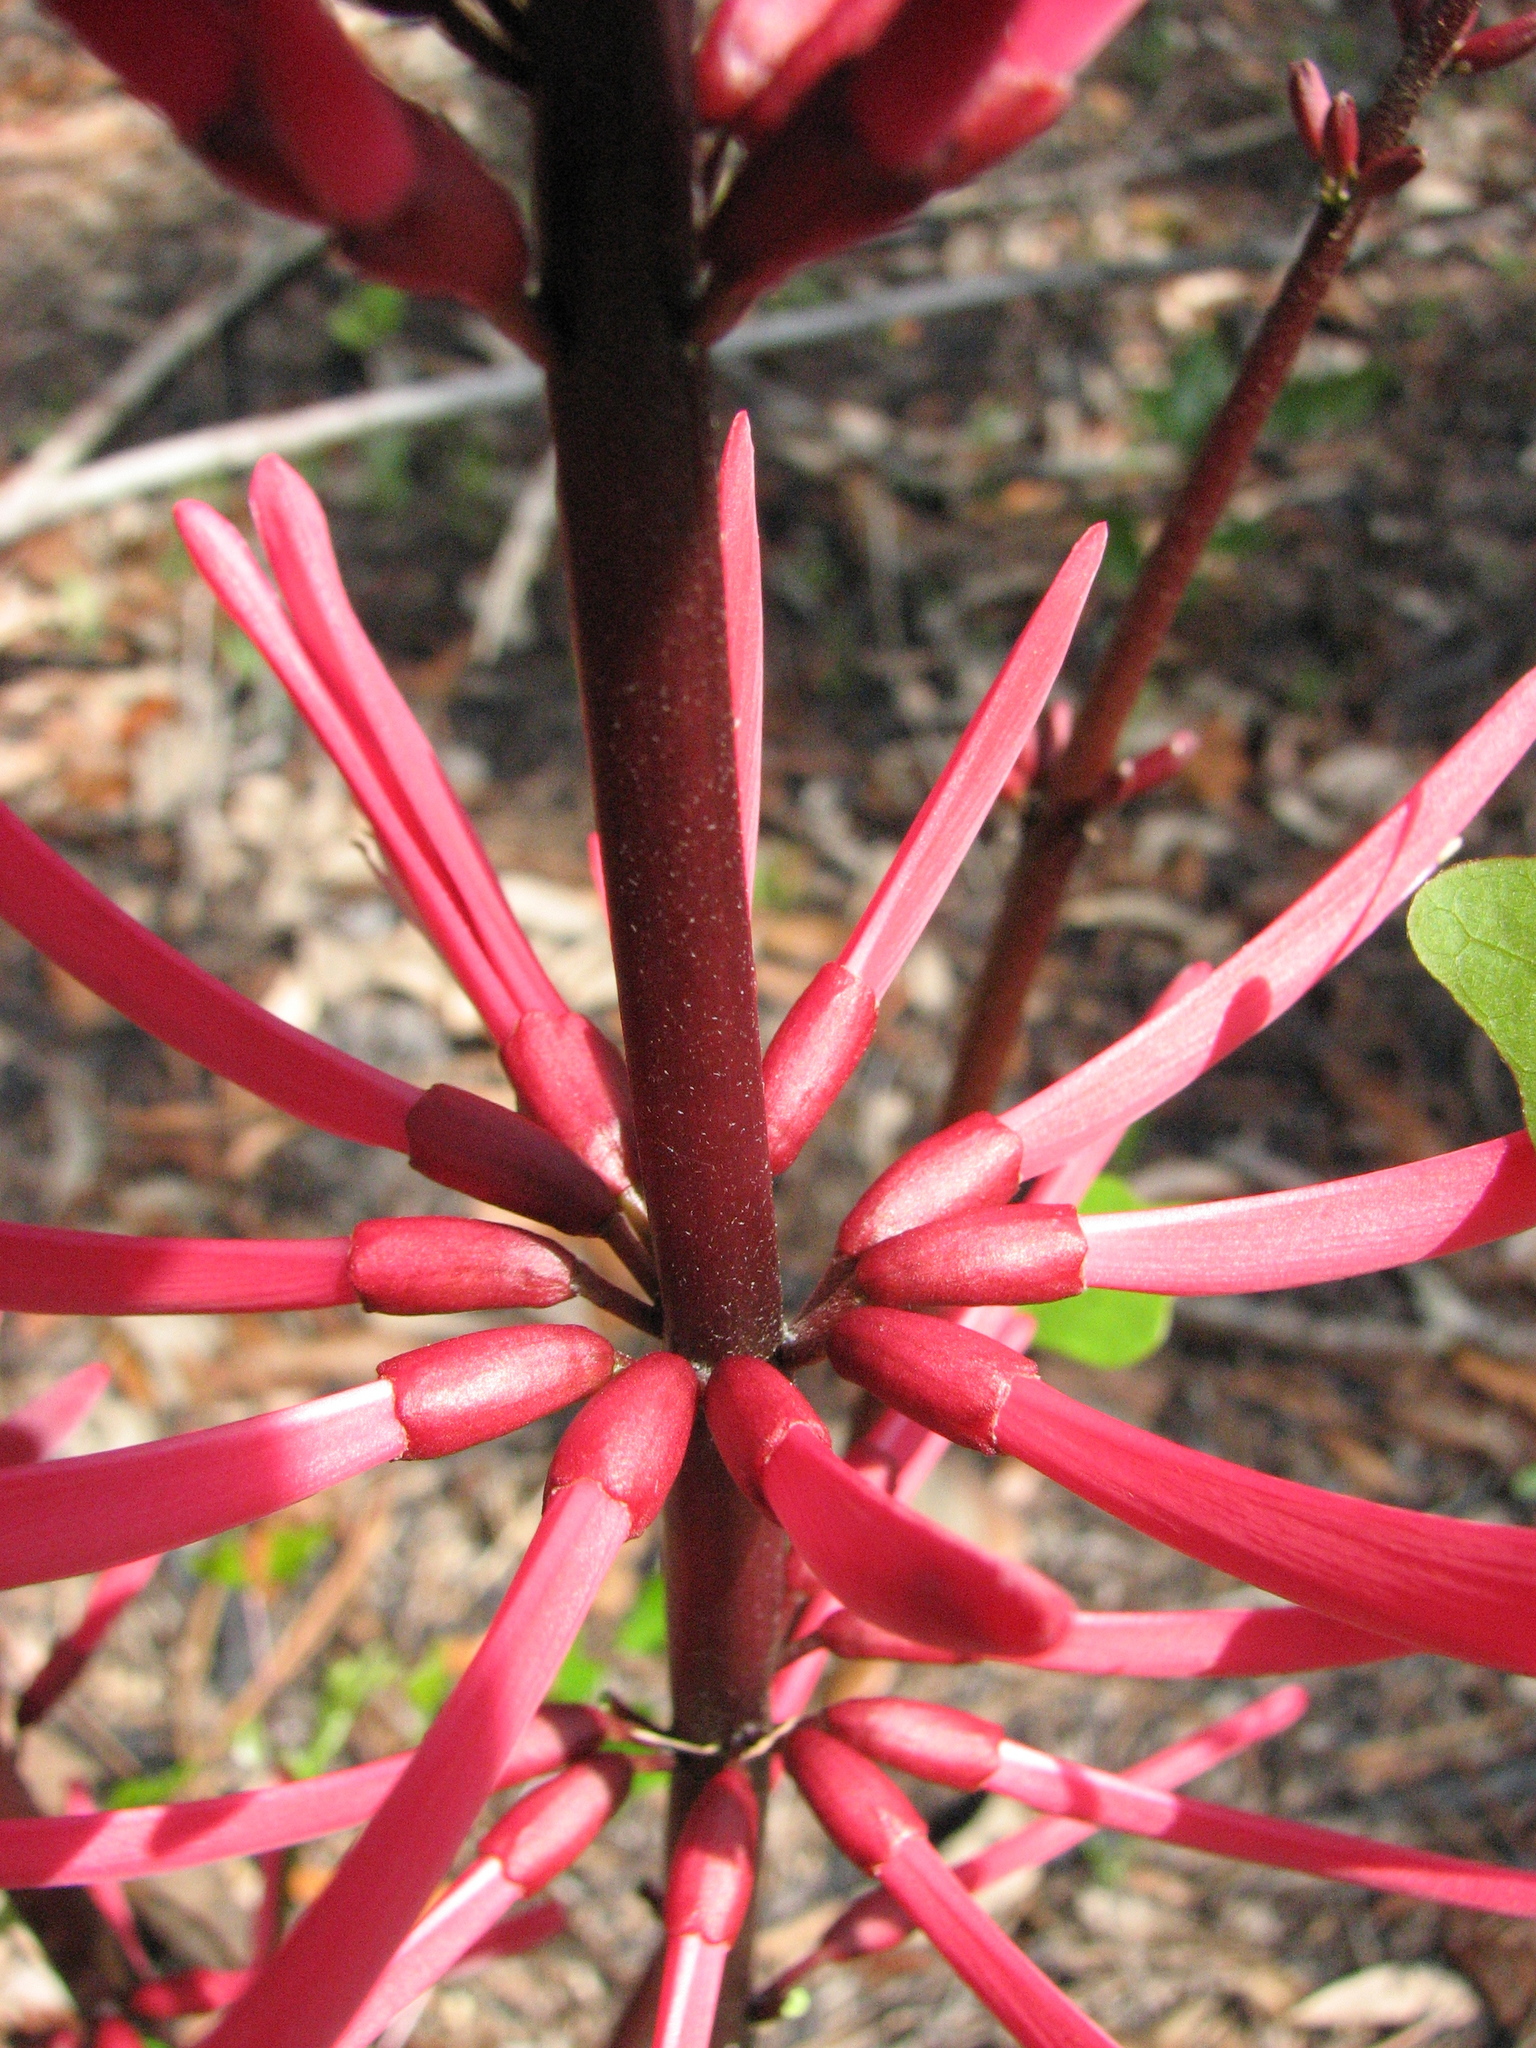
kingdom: Plantae
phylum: Tracheophyta
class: Magnoliopsida
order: Fabales
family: Fabaceae
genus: Erythrina
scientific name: Erythrina herbacea
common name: Coral-bean
